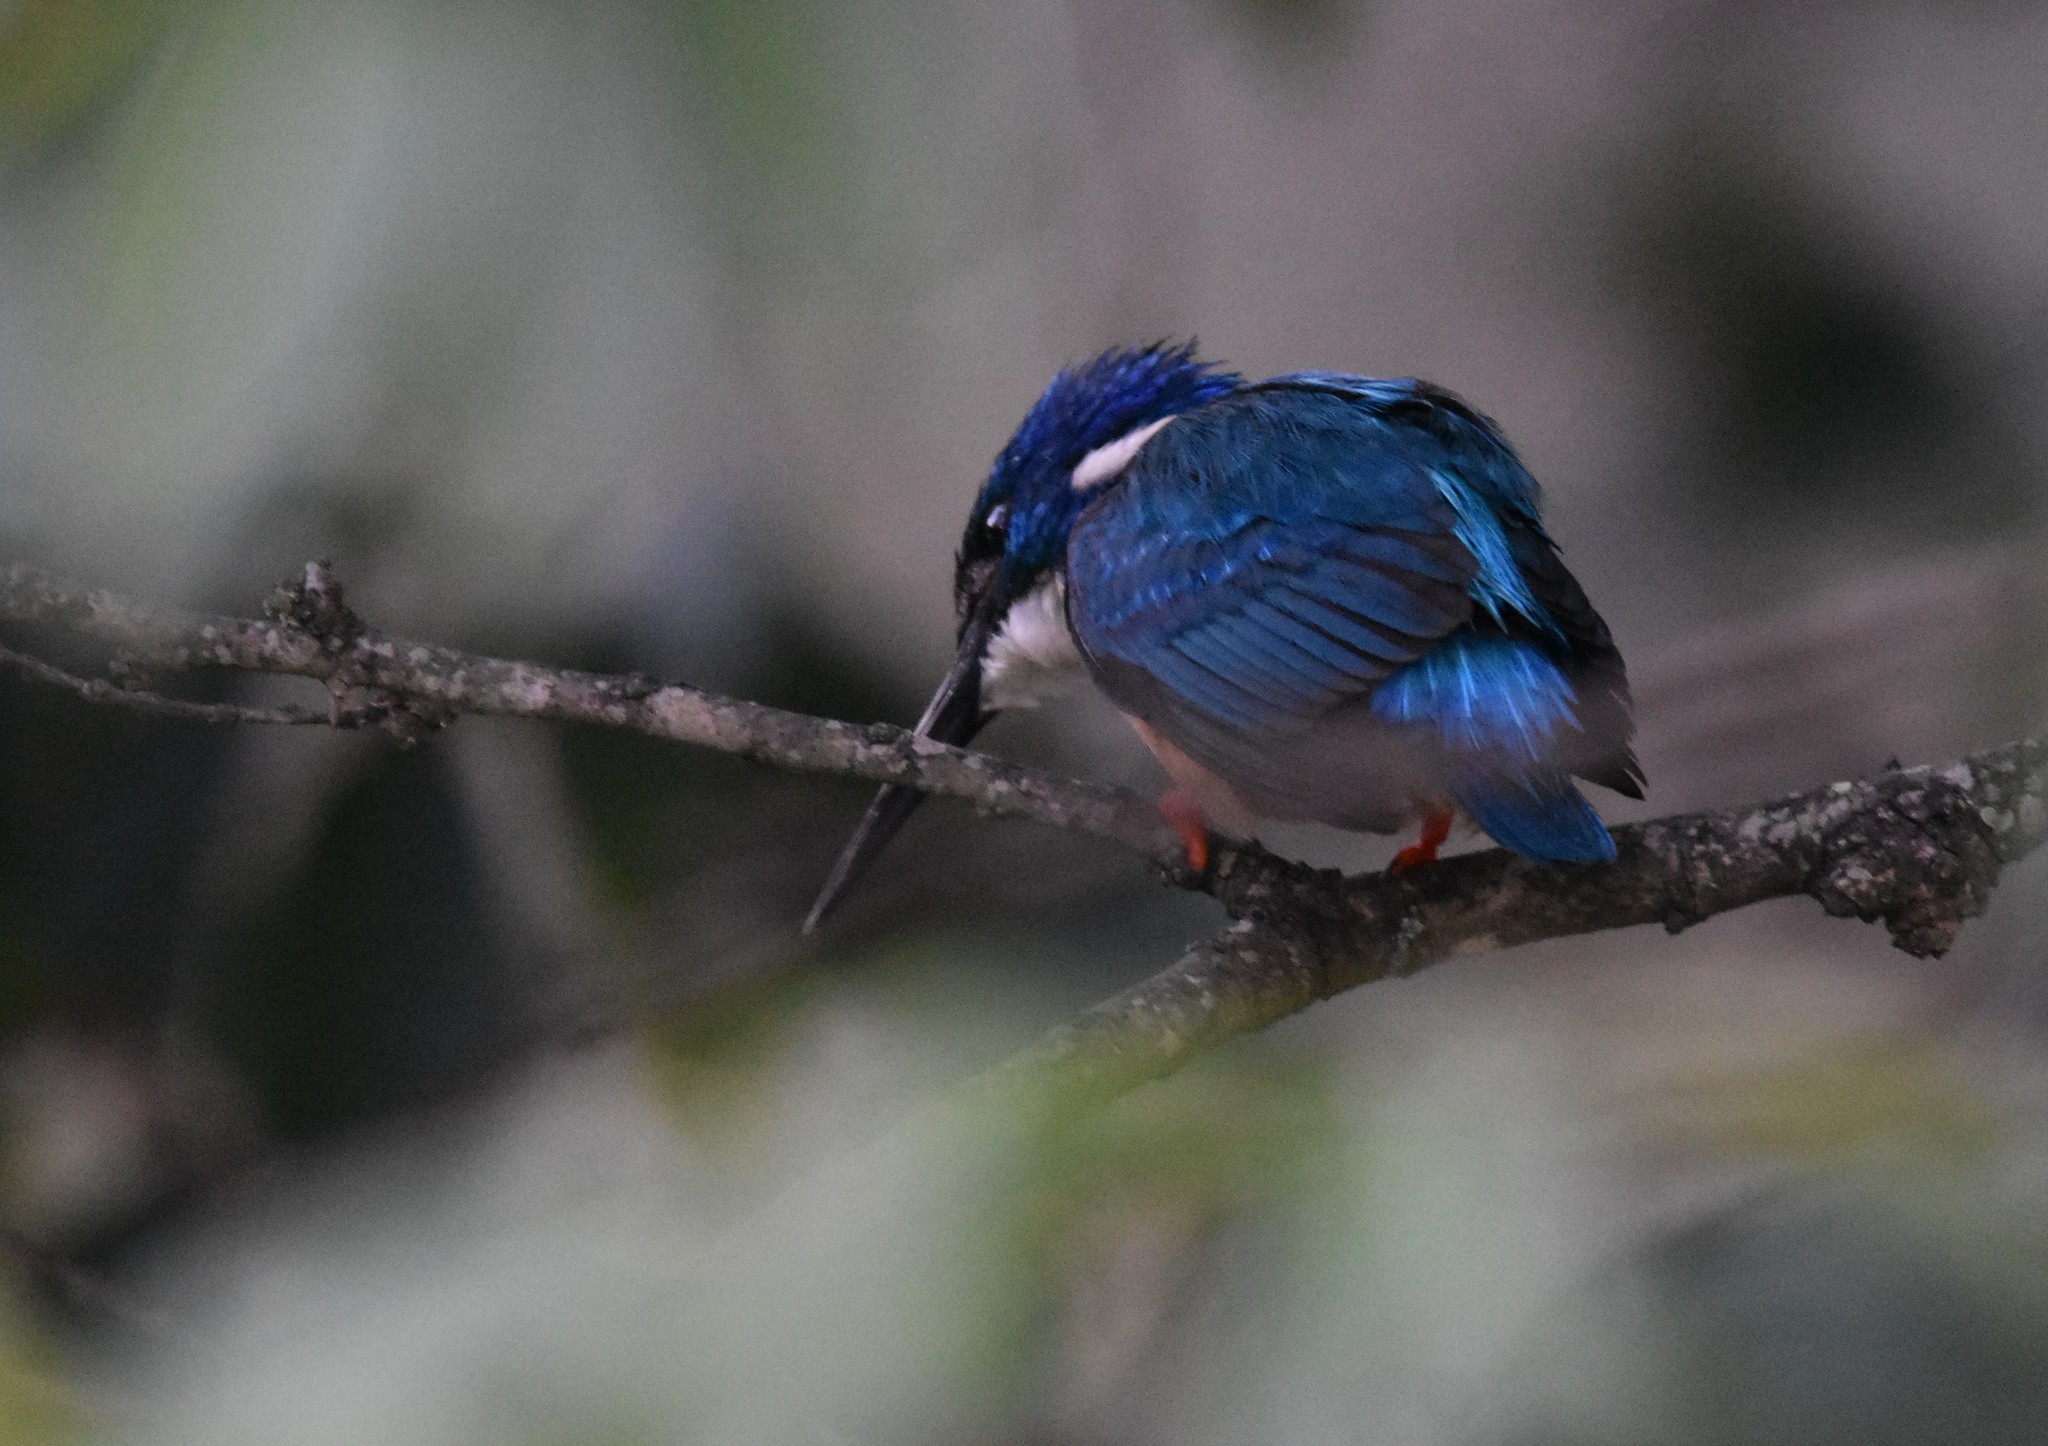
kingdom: Animalia
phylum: Chordata
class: Aves
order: Coraciiformes
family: Alcedinidae
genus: Alcedo
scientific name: Alcedo semitorquata
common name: Half-collared kingfisher
